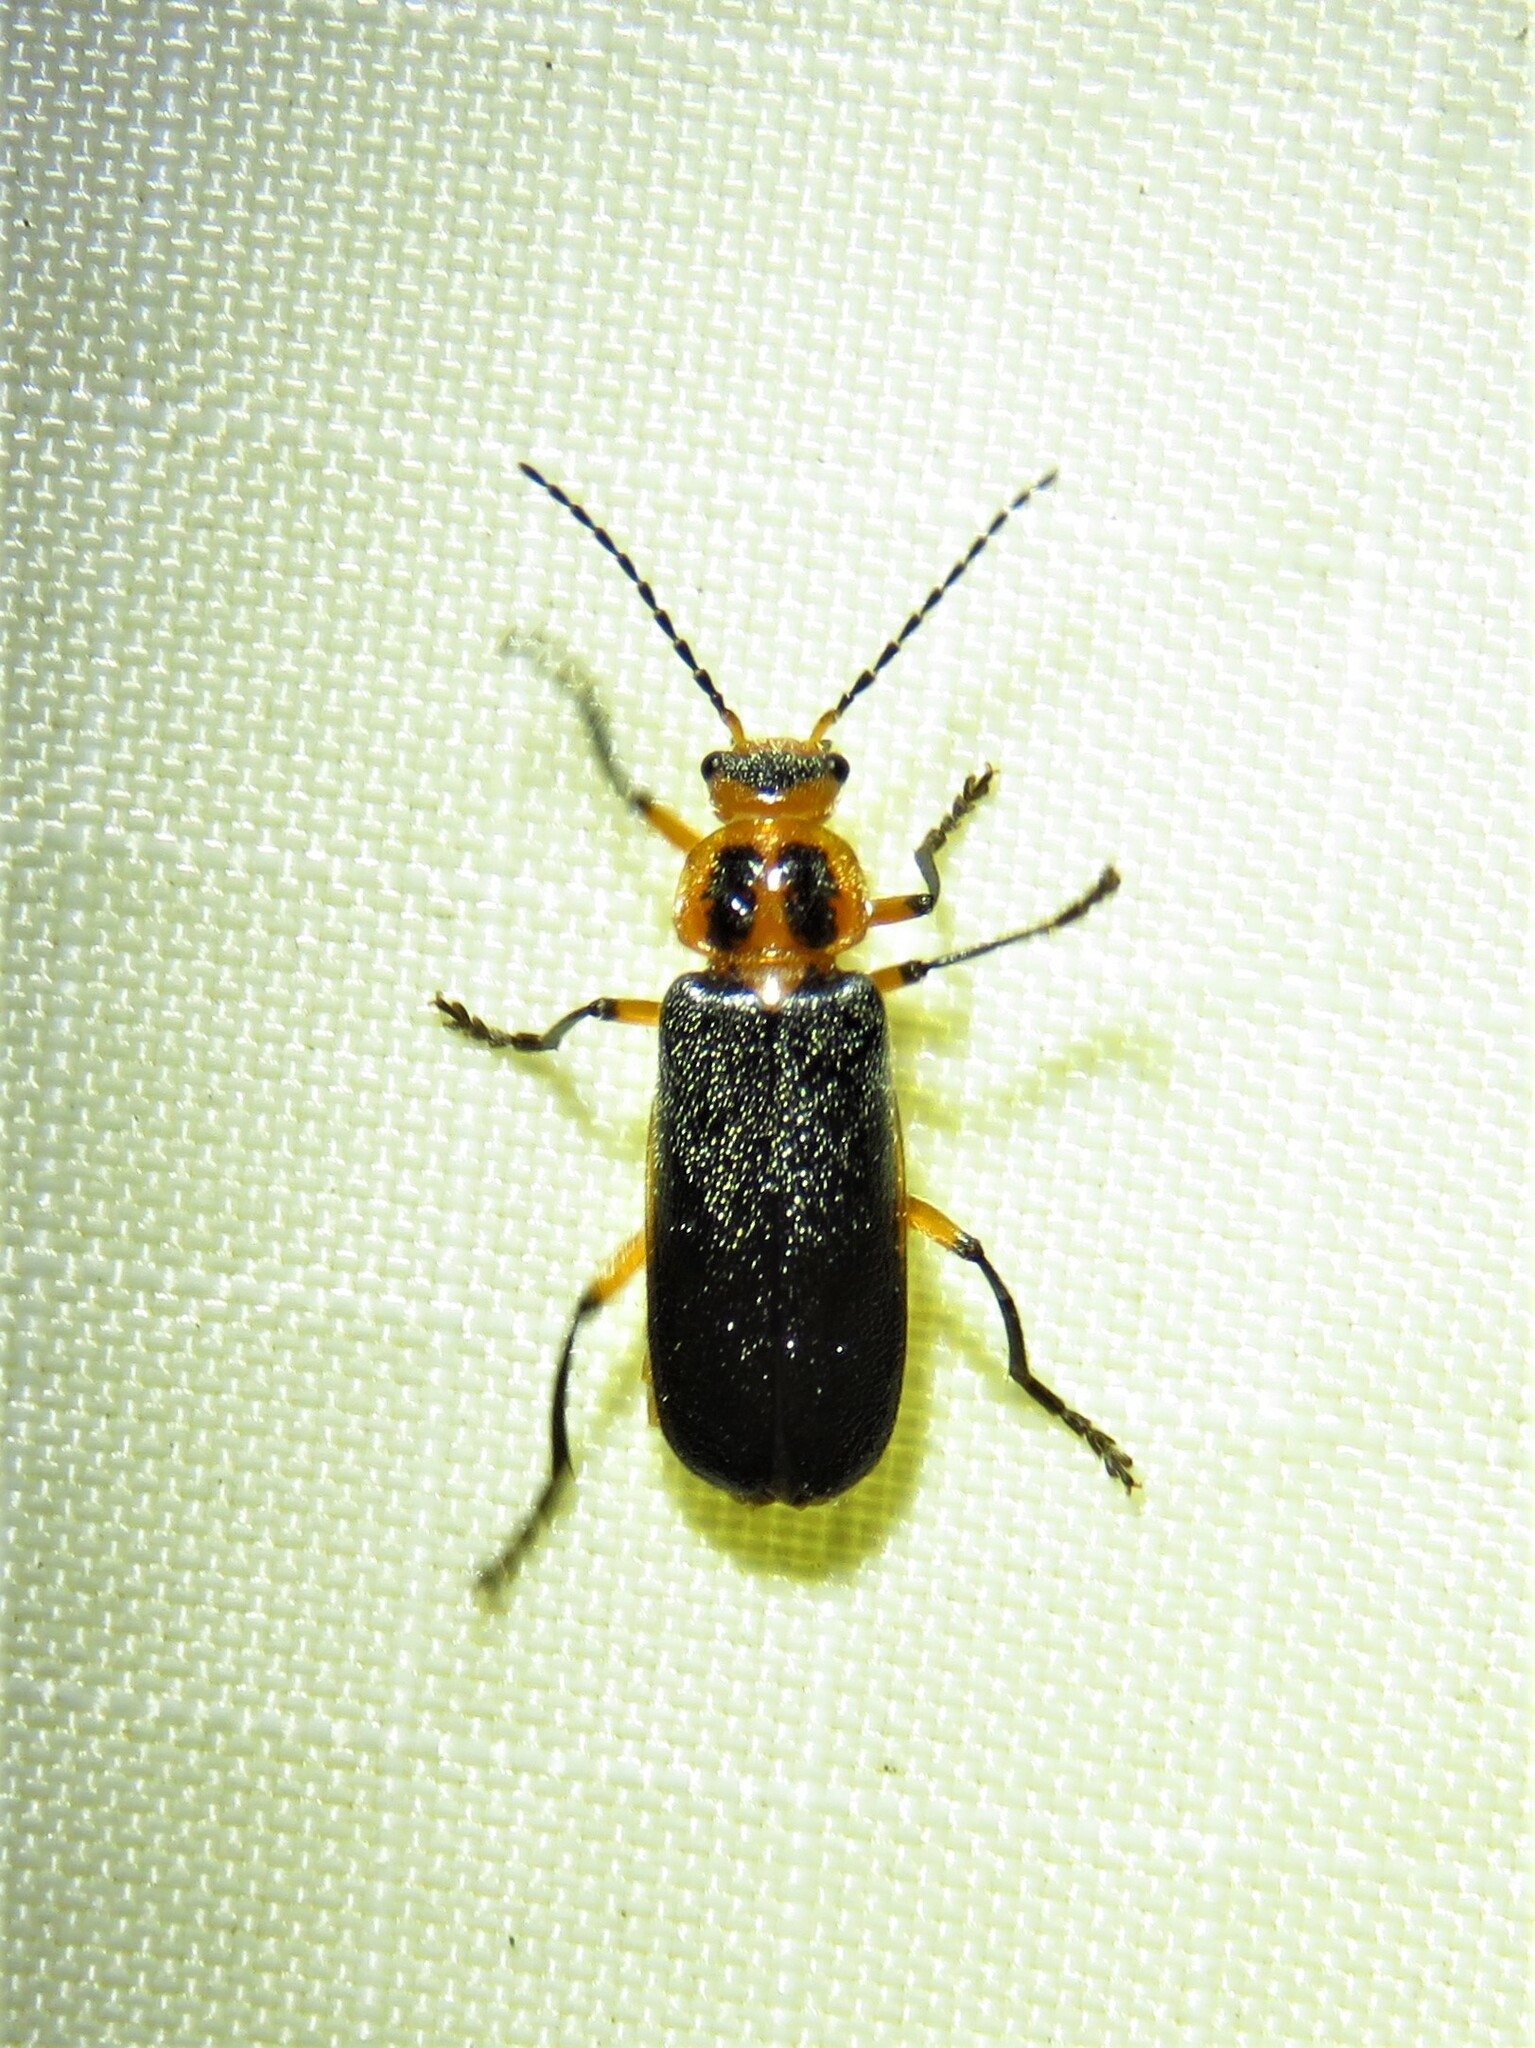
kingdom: Animalia
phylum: Arthropoda
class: Insecta
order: Coleoptera
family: Cantharidae
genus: Atalantycha
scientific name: Atalantycha bilineata
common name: Two-lined leatherwing
